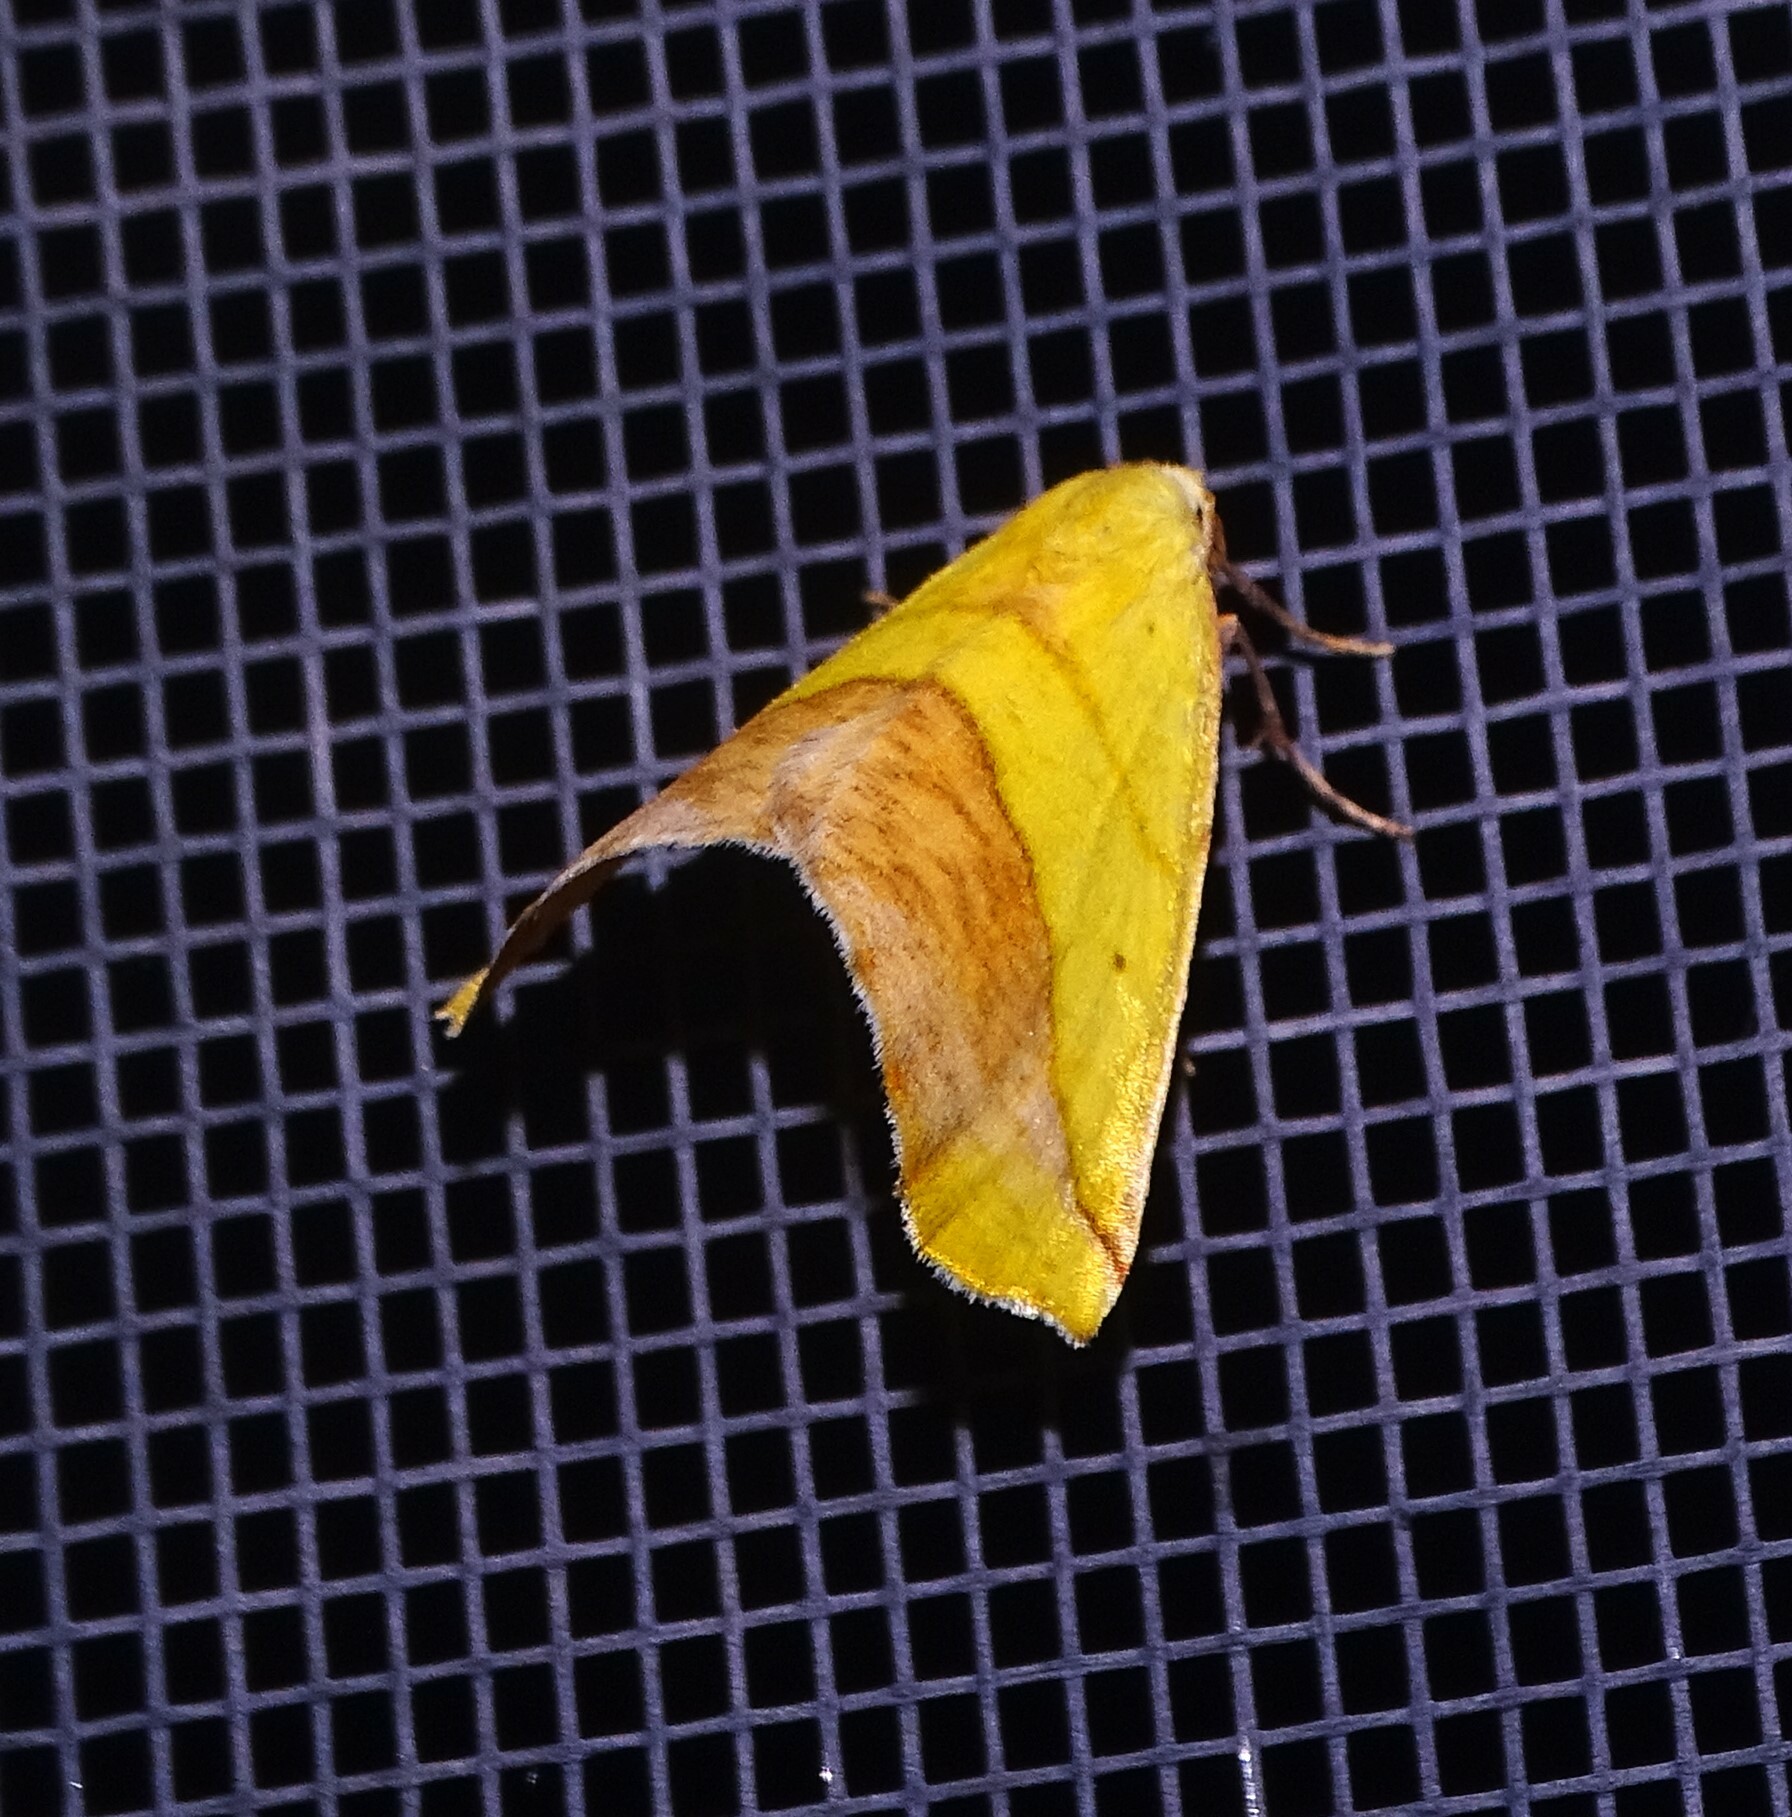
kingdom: Animalia
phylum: Arthropoda
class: Insecta
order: Lepidoptera
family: Geometridae
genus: Sicya
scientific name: Sicya macularia
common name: Sharp-lined yellow
